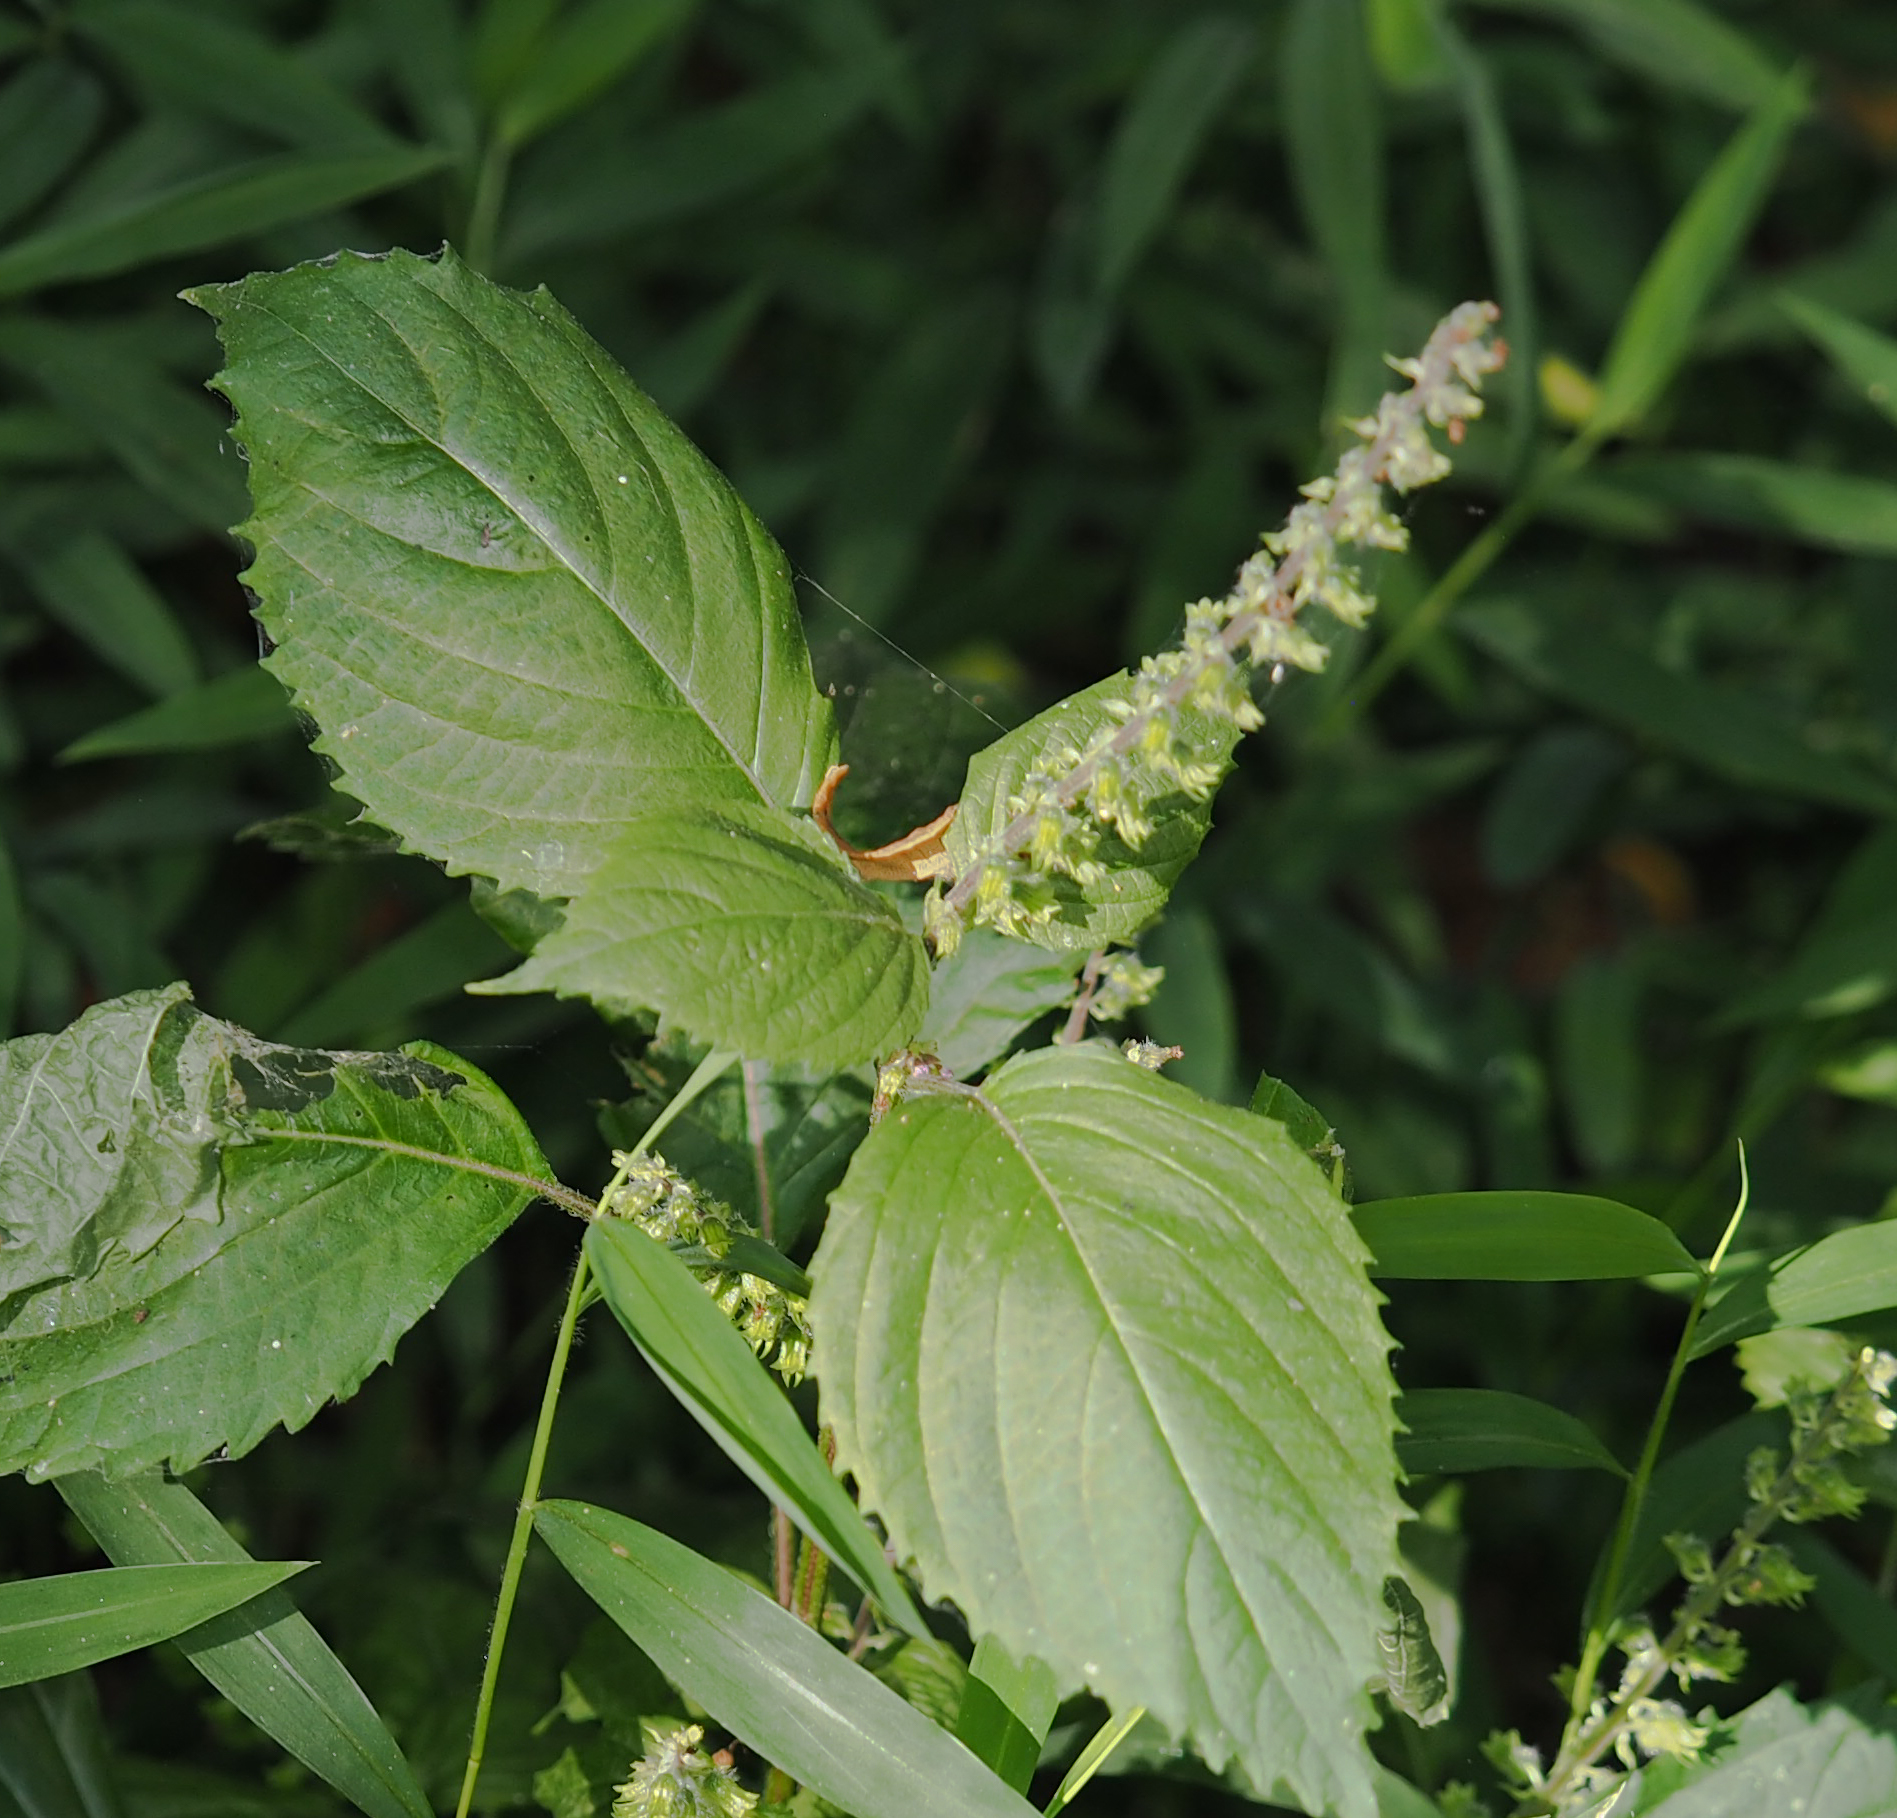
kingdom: Plantae
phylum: Tracheophyta
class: Magnoliopsida
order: Lamiales
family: Lamiaceae
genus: Perilla
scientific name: Perilla frutescens
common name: Perilla
